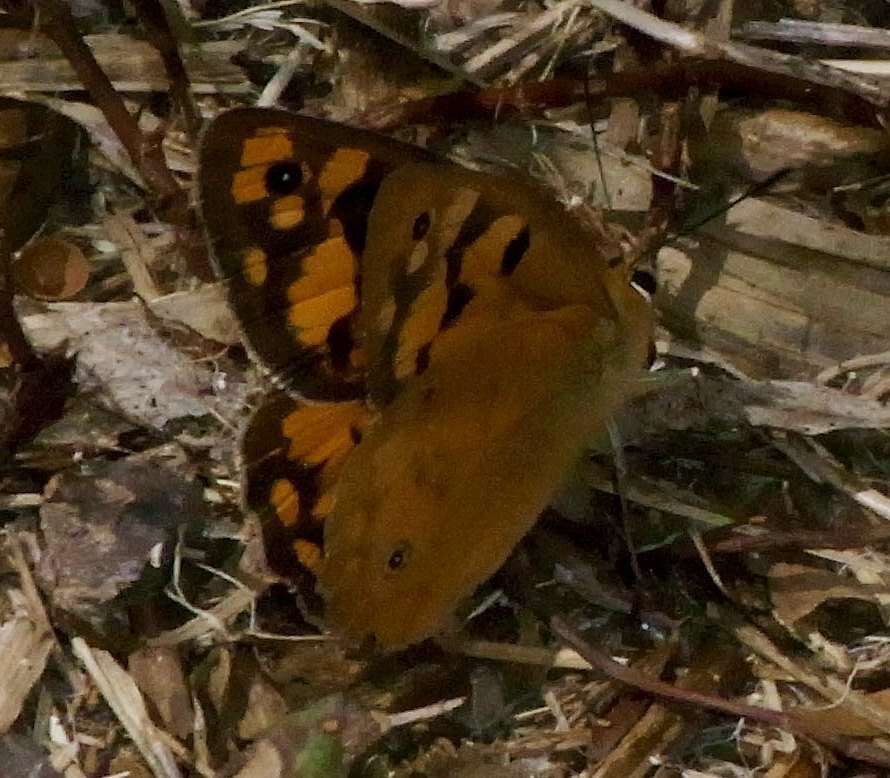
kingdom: Animalia
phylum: Arthropoda
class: Insecta
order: Lepidoptera
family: Nymphalidae
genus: Heteronympha
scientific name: Heteronympha penelope
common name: Shouldered brown
